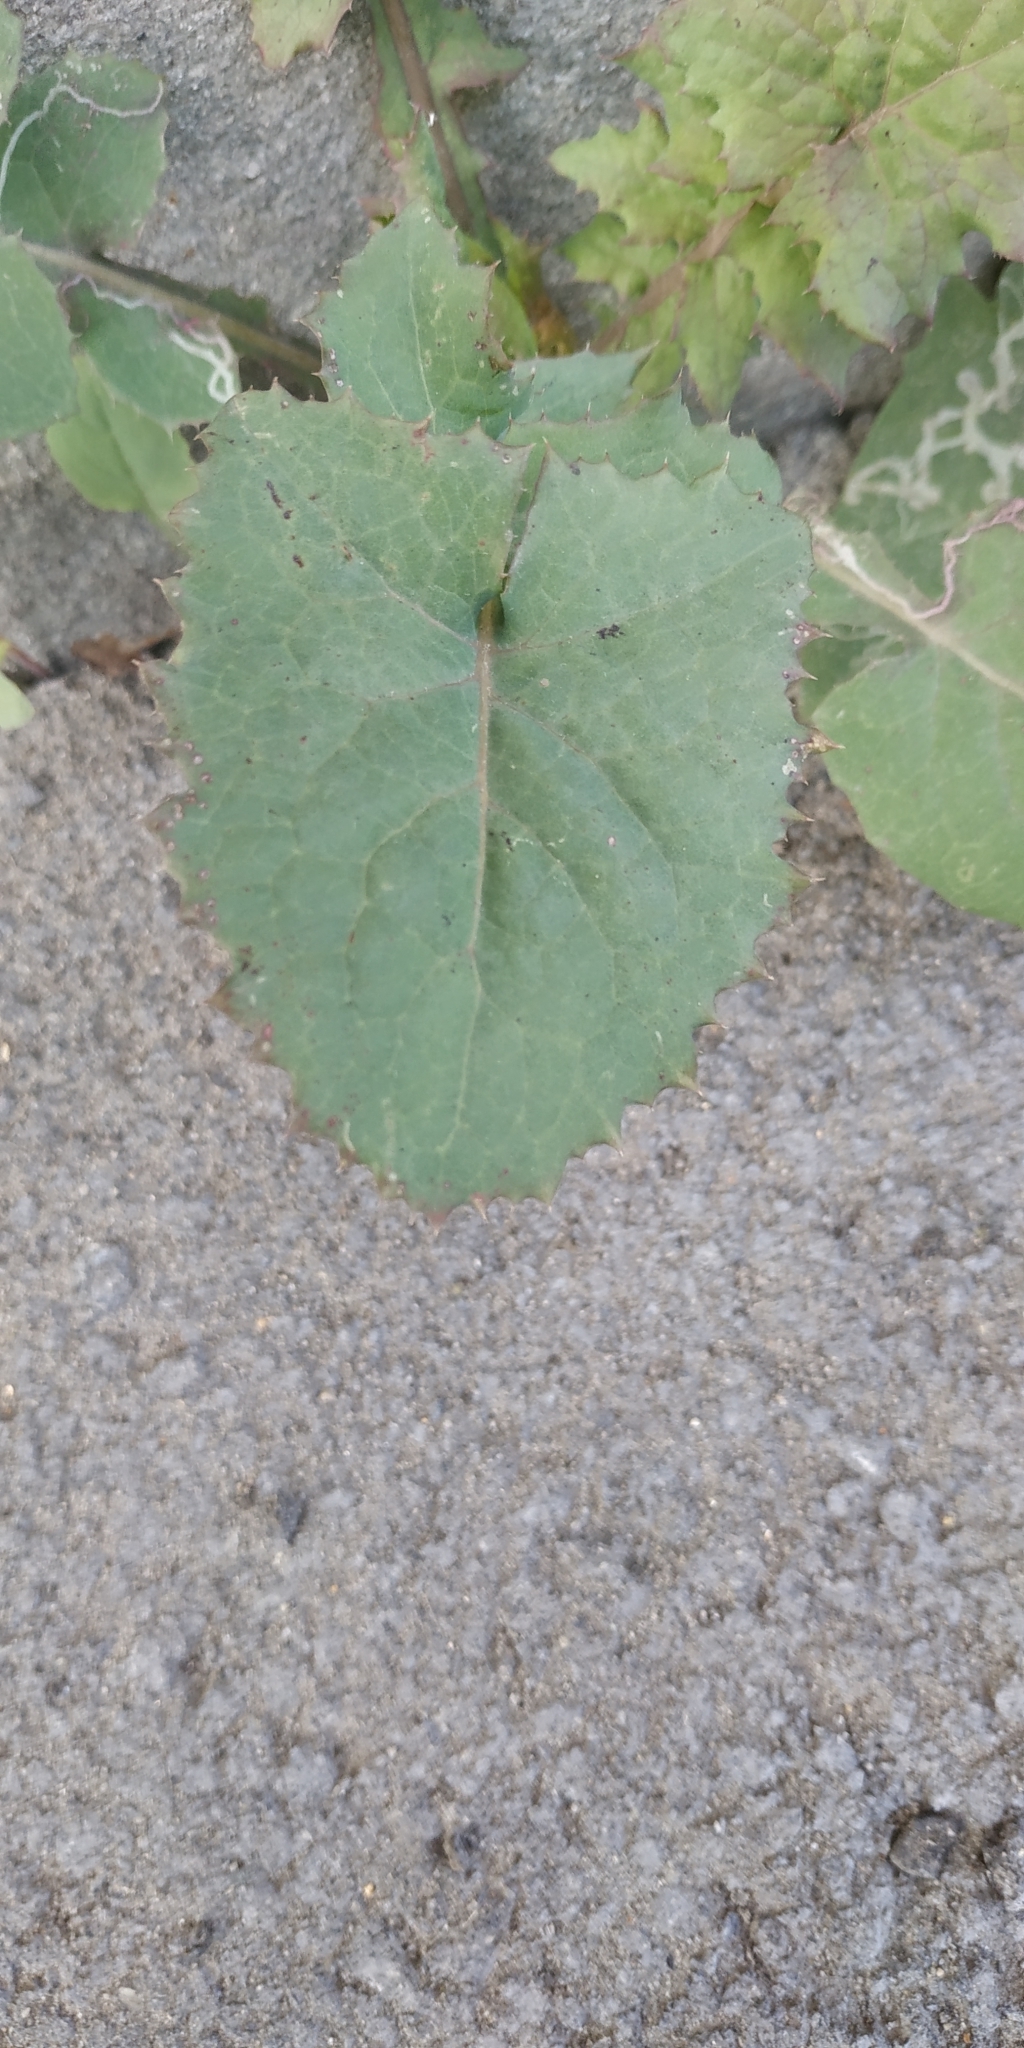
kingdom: Plantae
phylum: Tracheophyta
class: Magnoliopsida
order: Asterales
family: Asteraceae
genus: Sonchus
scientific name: Sonchus oleraceus
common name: Common sowthistle
